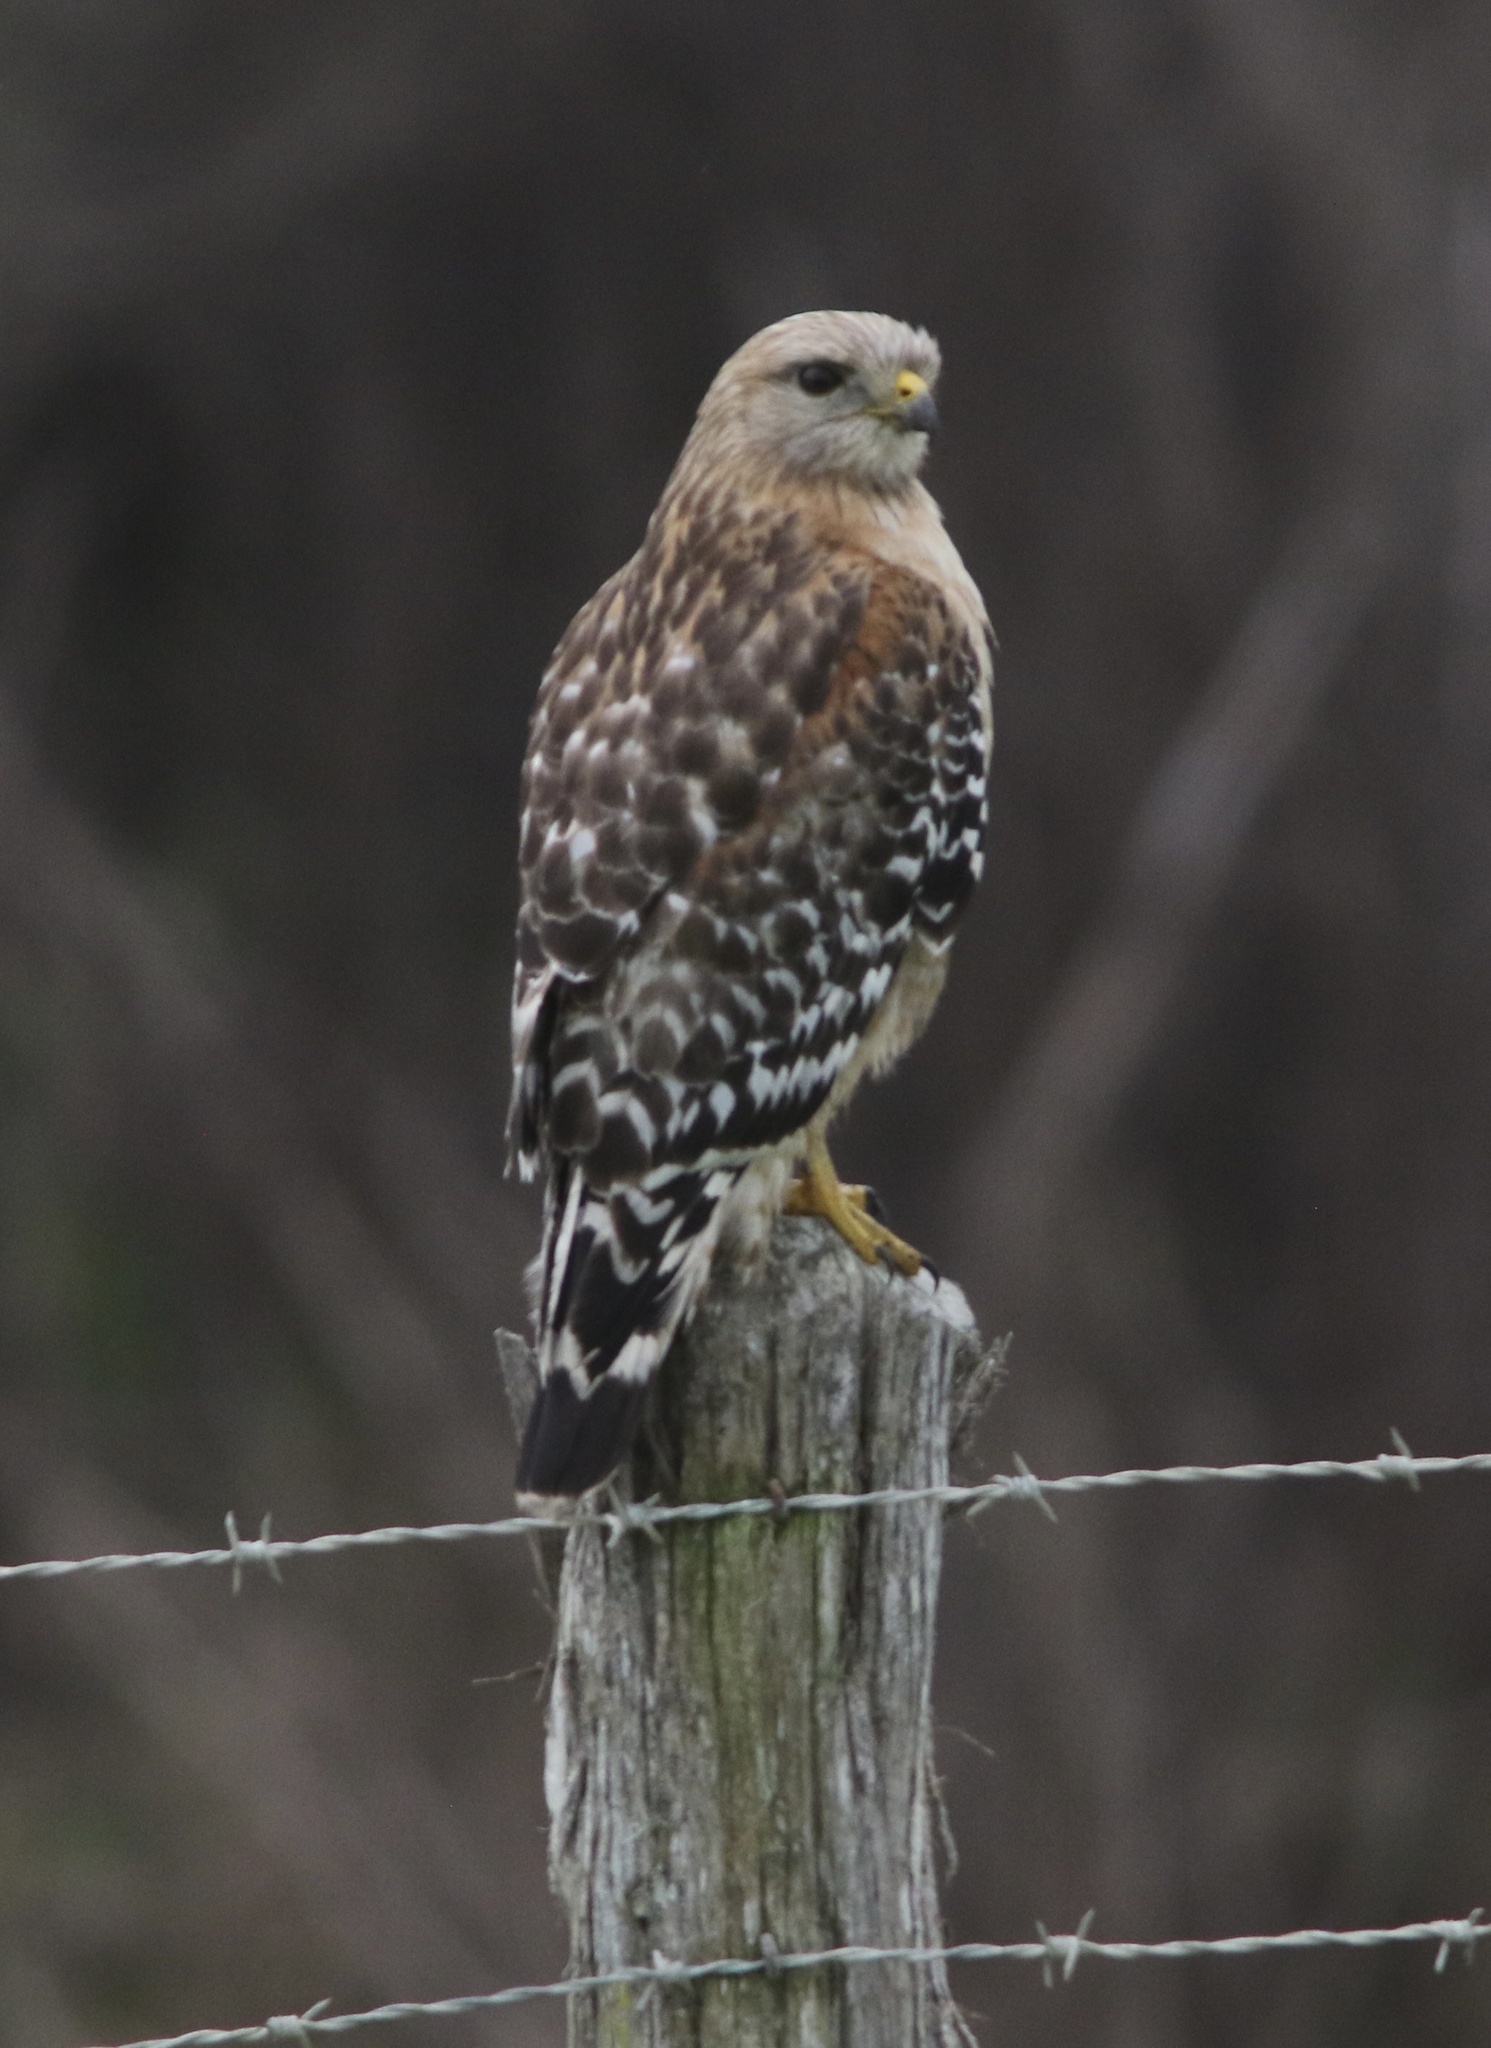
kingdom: Animalia
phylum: Chordata
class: Aves
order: Accipitriformes
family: Accipitridae
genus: Buteo
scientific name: Buteo lineatus
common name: Red-shouldered hawk
